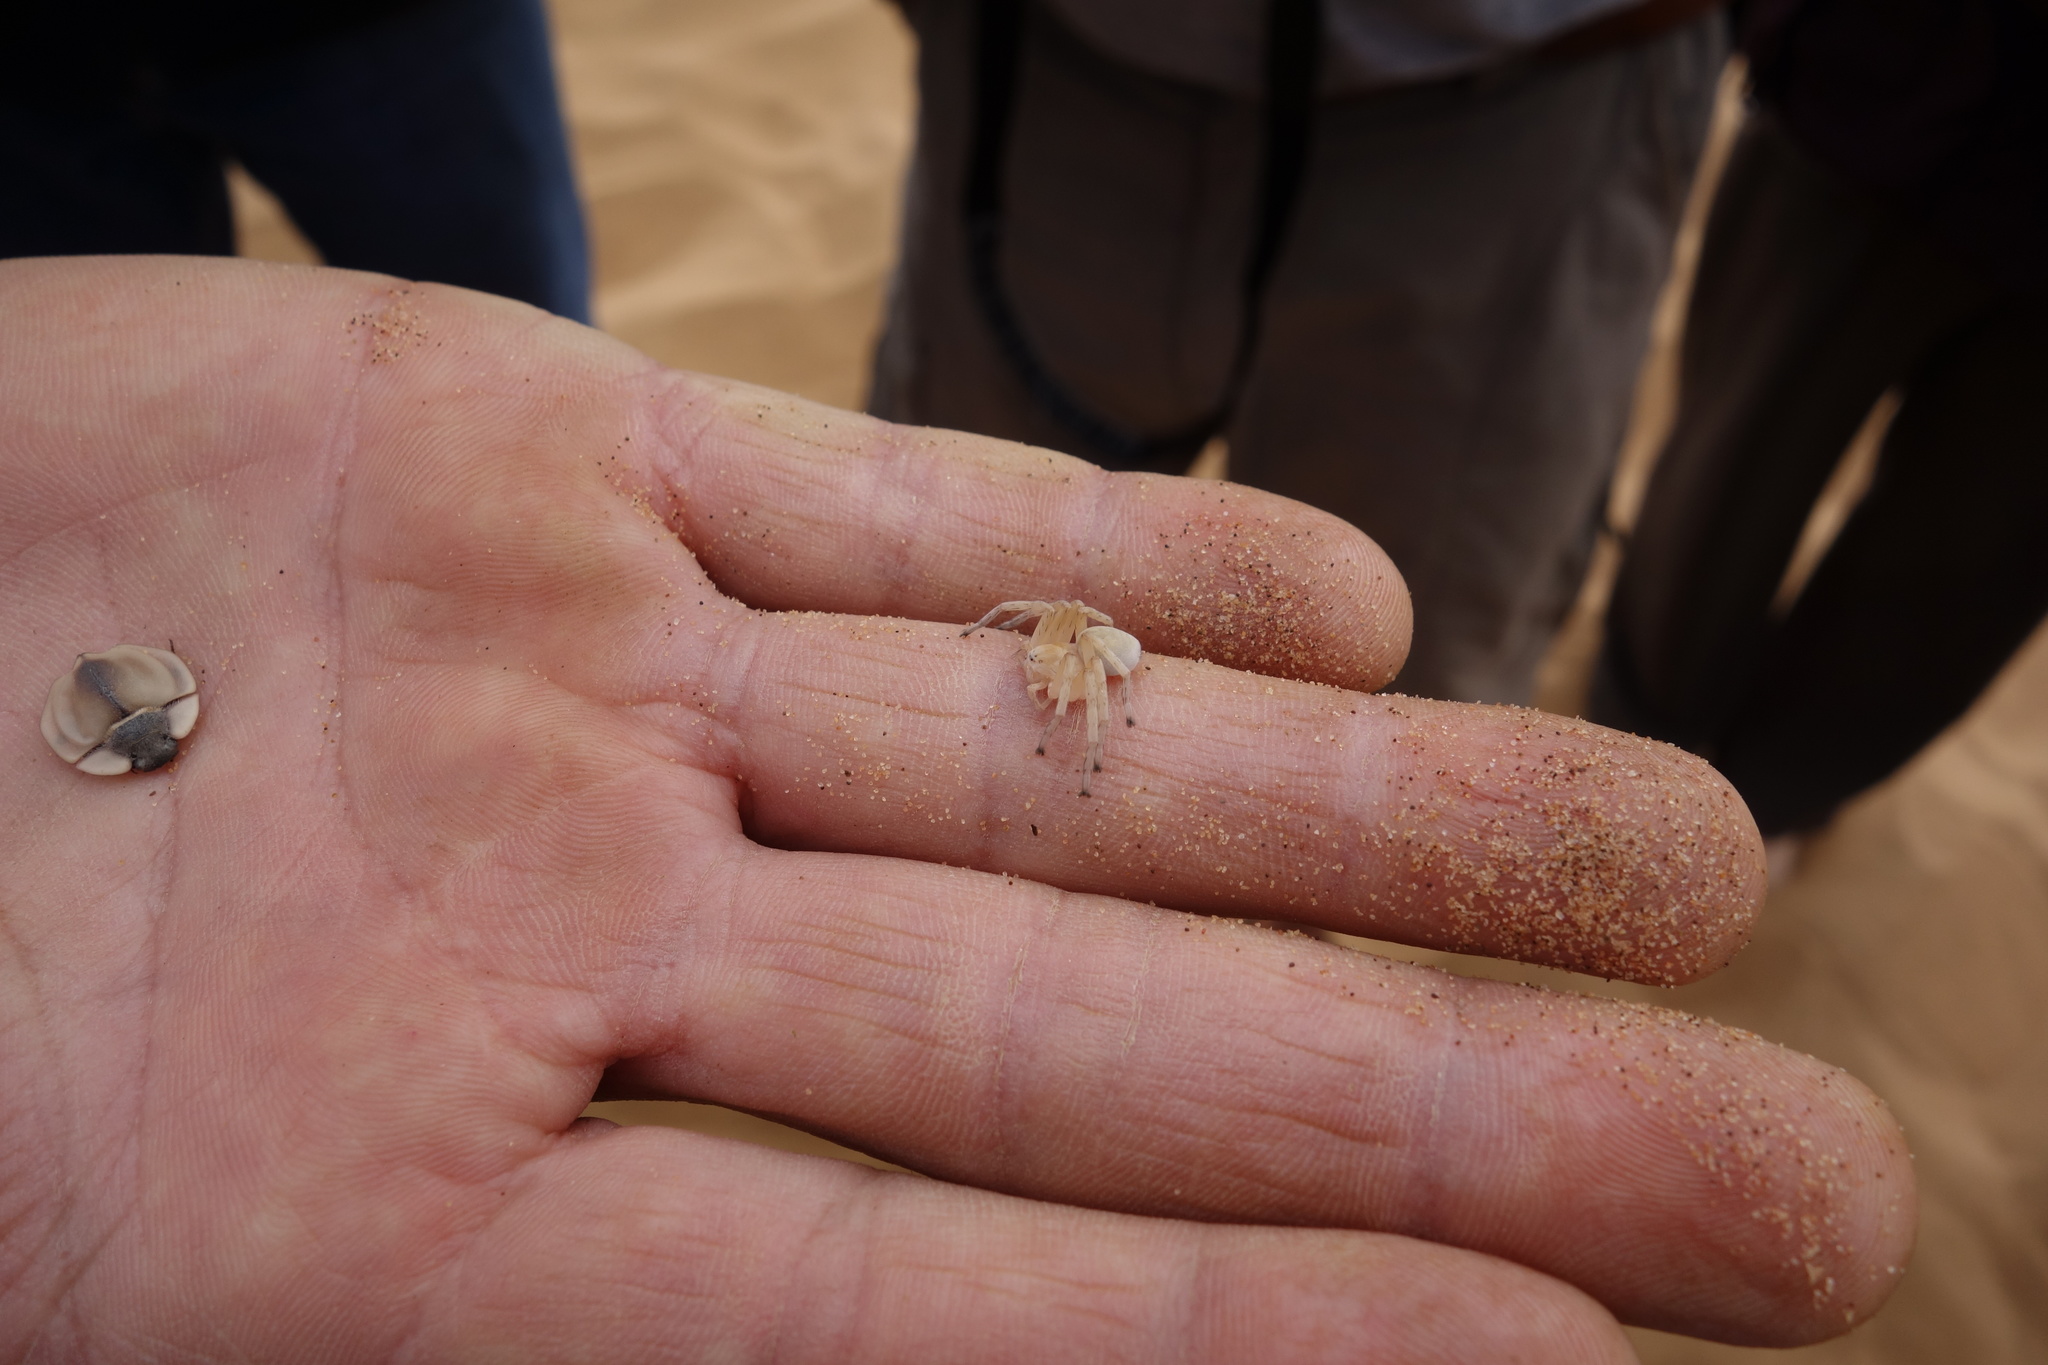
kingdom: Animalia
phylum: Arthropoda
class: Arachnida
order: Araneae
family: Sparassidae
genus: Carparachne
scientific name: Carparachne aureoflava
